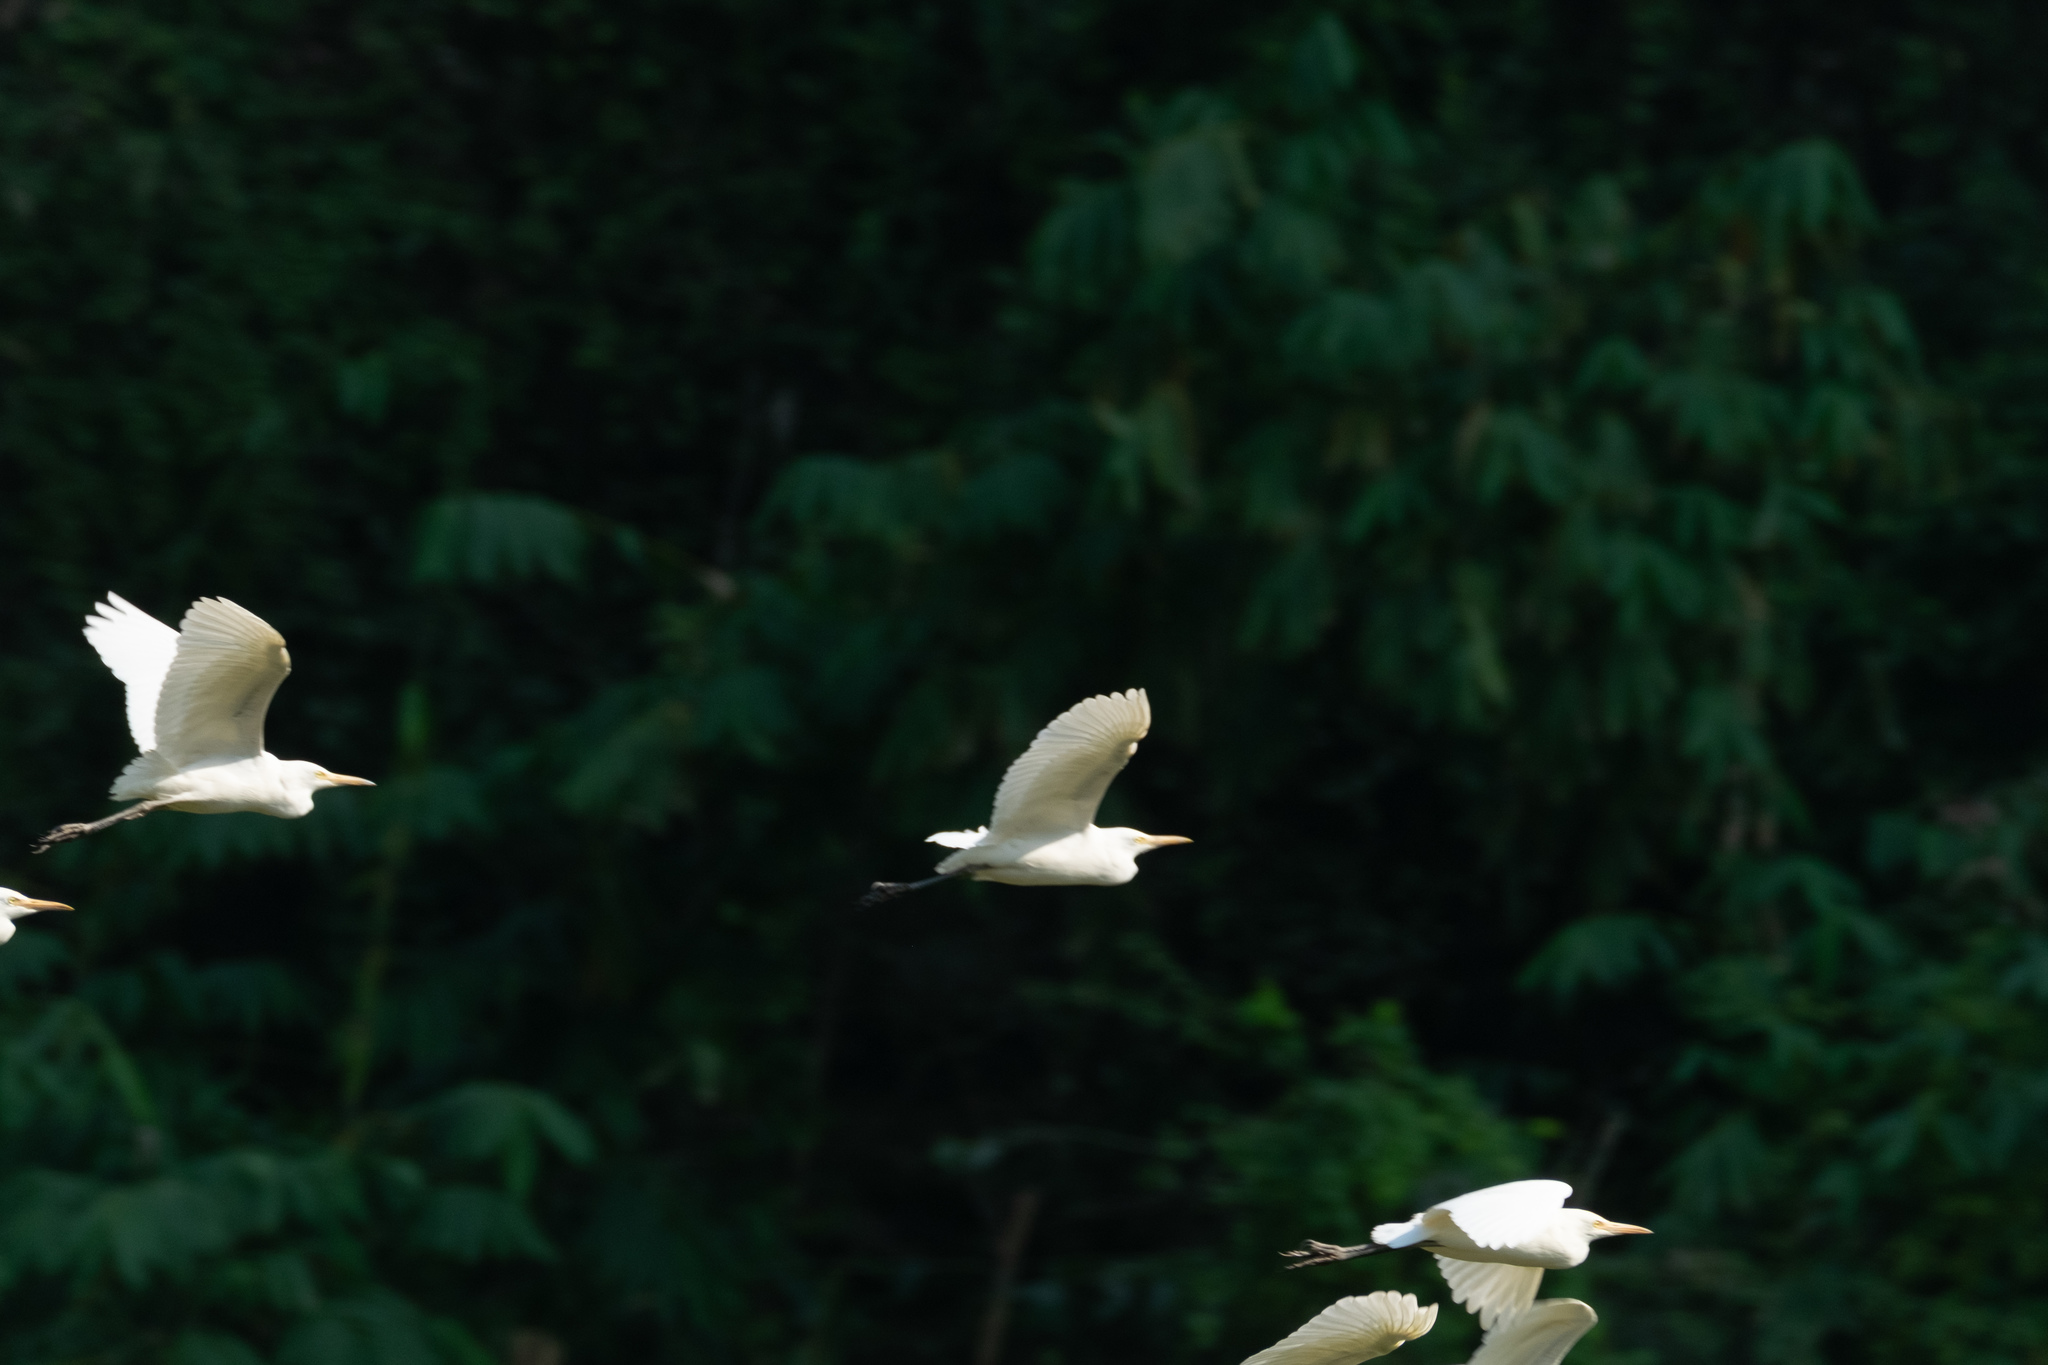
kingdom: Animalia
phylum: Chordata
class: Aves
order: Pelecaniformes
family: Ardeidae
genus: Bubulcus
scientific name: Bubulcus coromandus
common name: Eastern cattle egret
